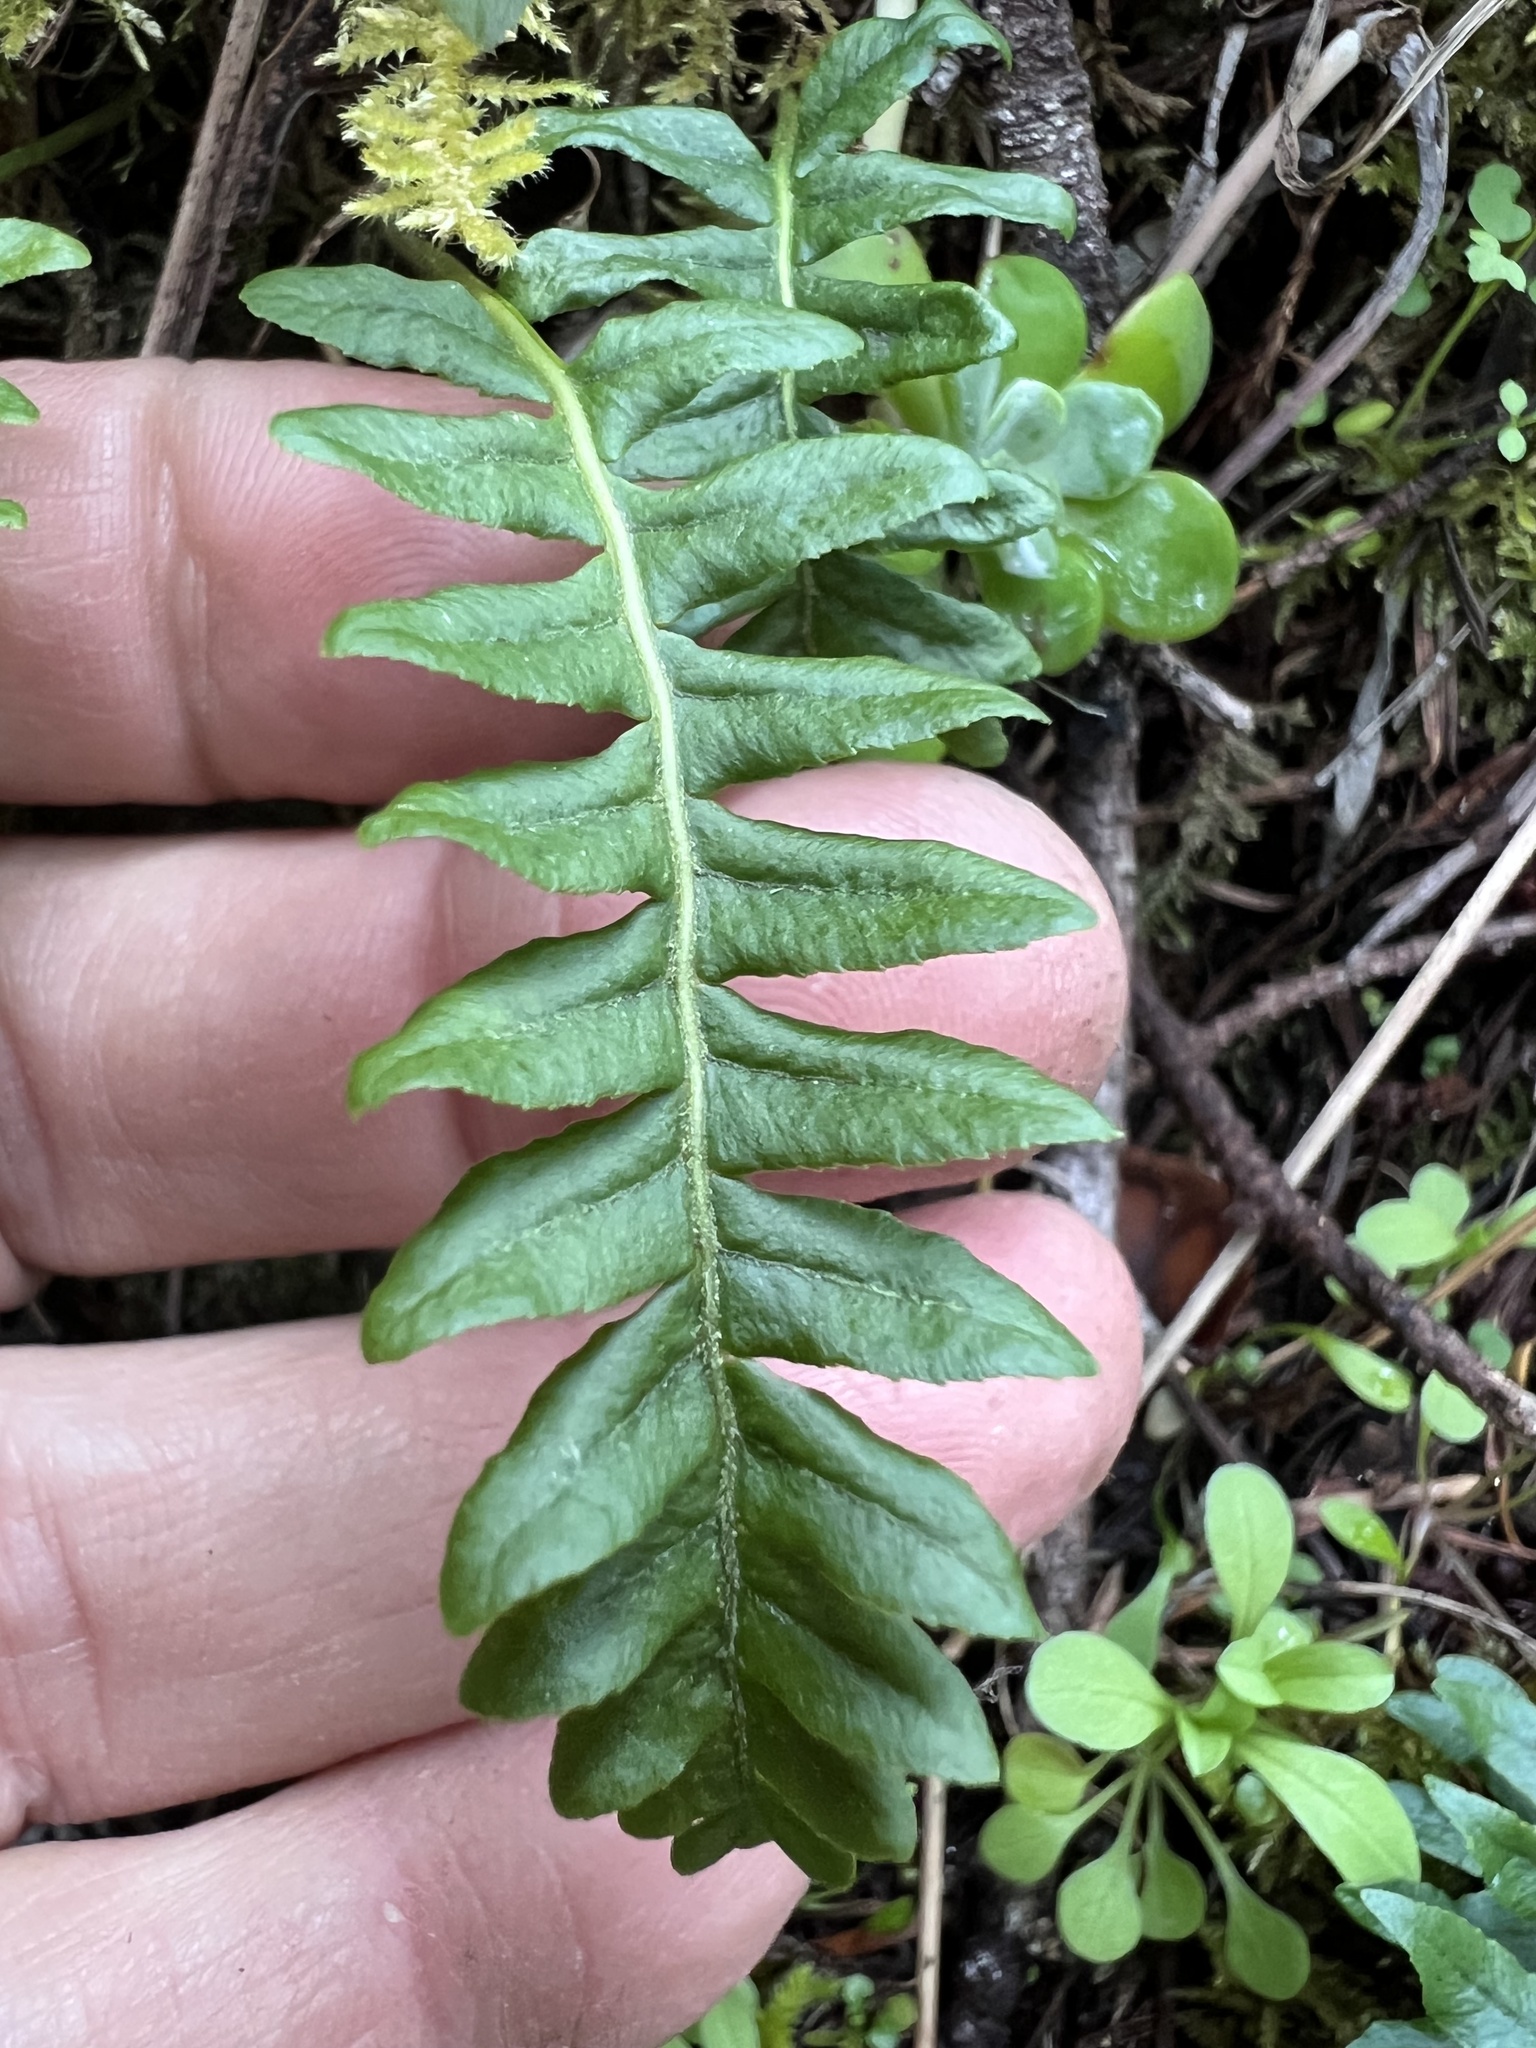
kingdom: Plantae
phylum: Tracheophyta
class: Polypodiopsida
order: Polypodiales
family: Polypodiaceae
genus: Polypodium
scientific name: Polypodium glycyrrhiza
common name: Licorice fern
